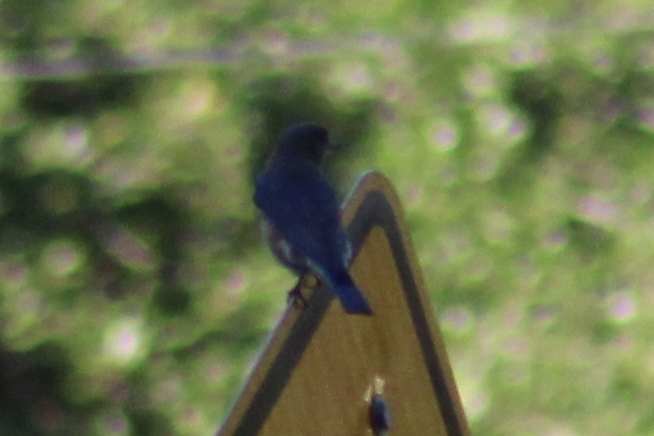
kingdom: Animalia
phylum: Chordata
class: Aves
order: Passeriformes
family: Turdidae
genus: Sialia
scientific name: Sialia sialis
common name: Eastern bluebird
